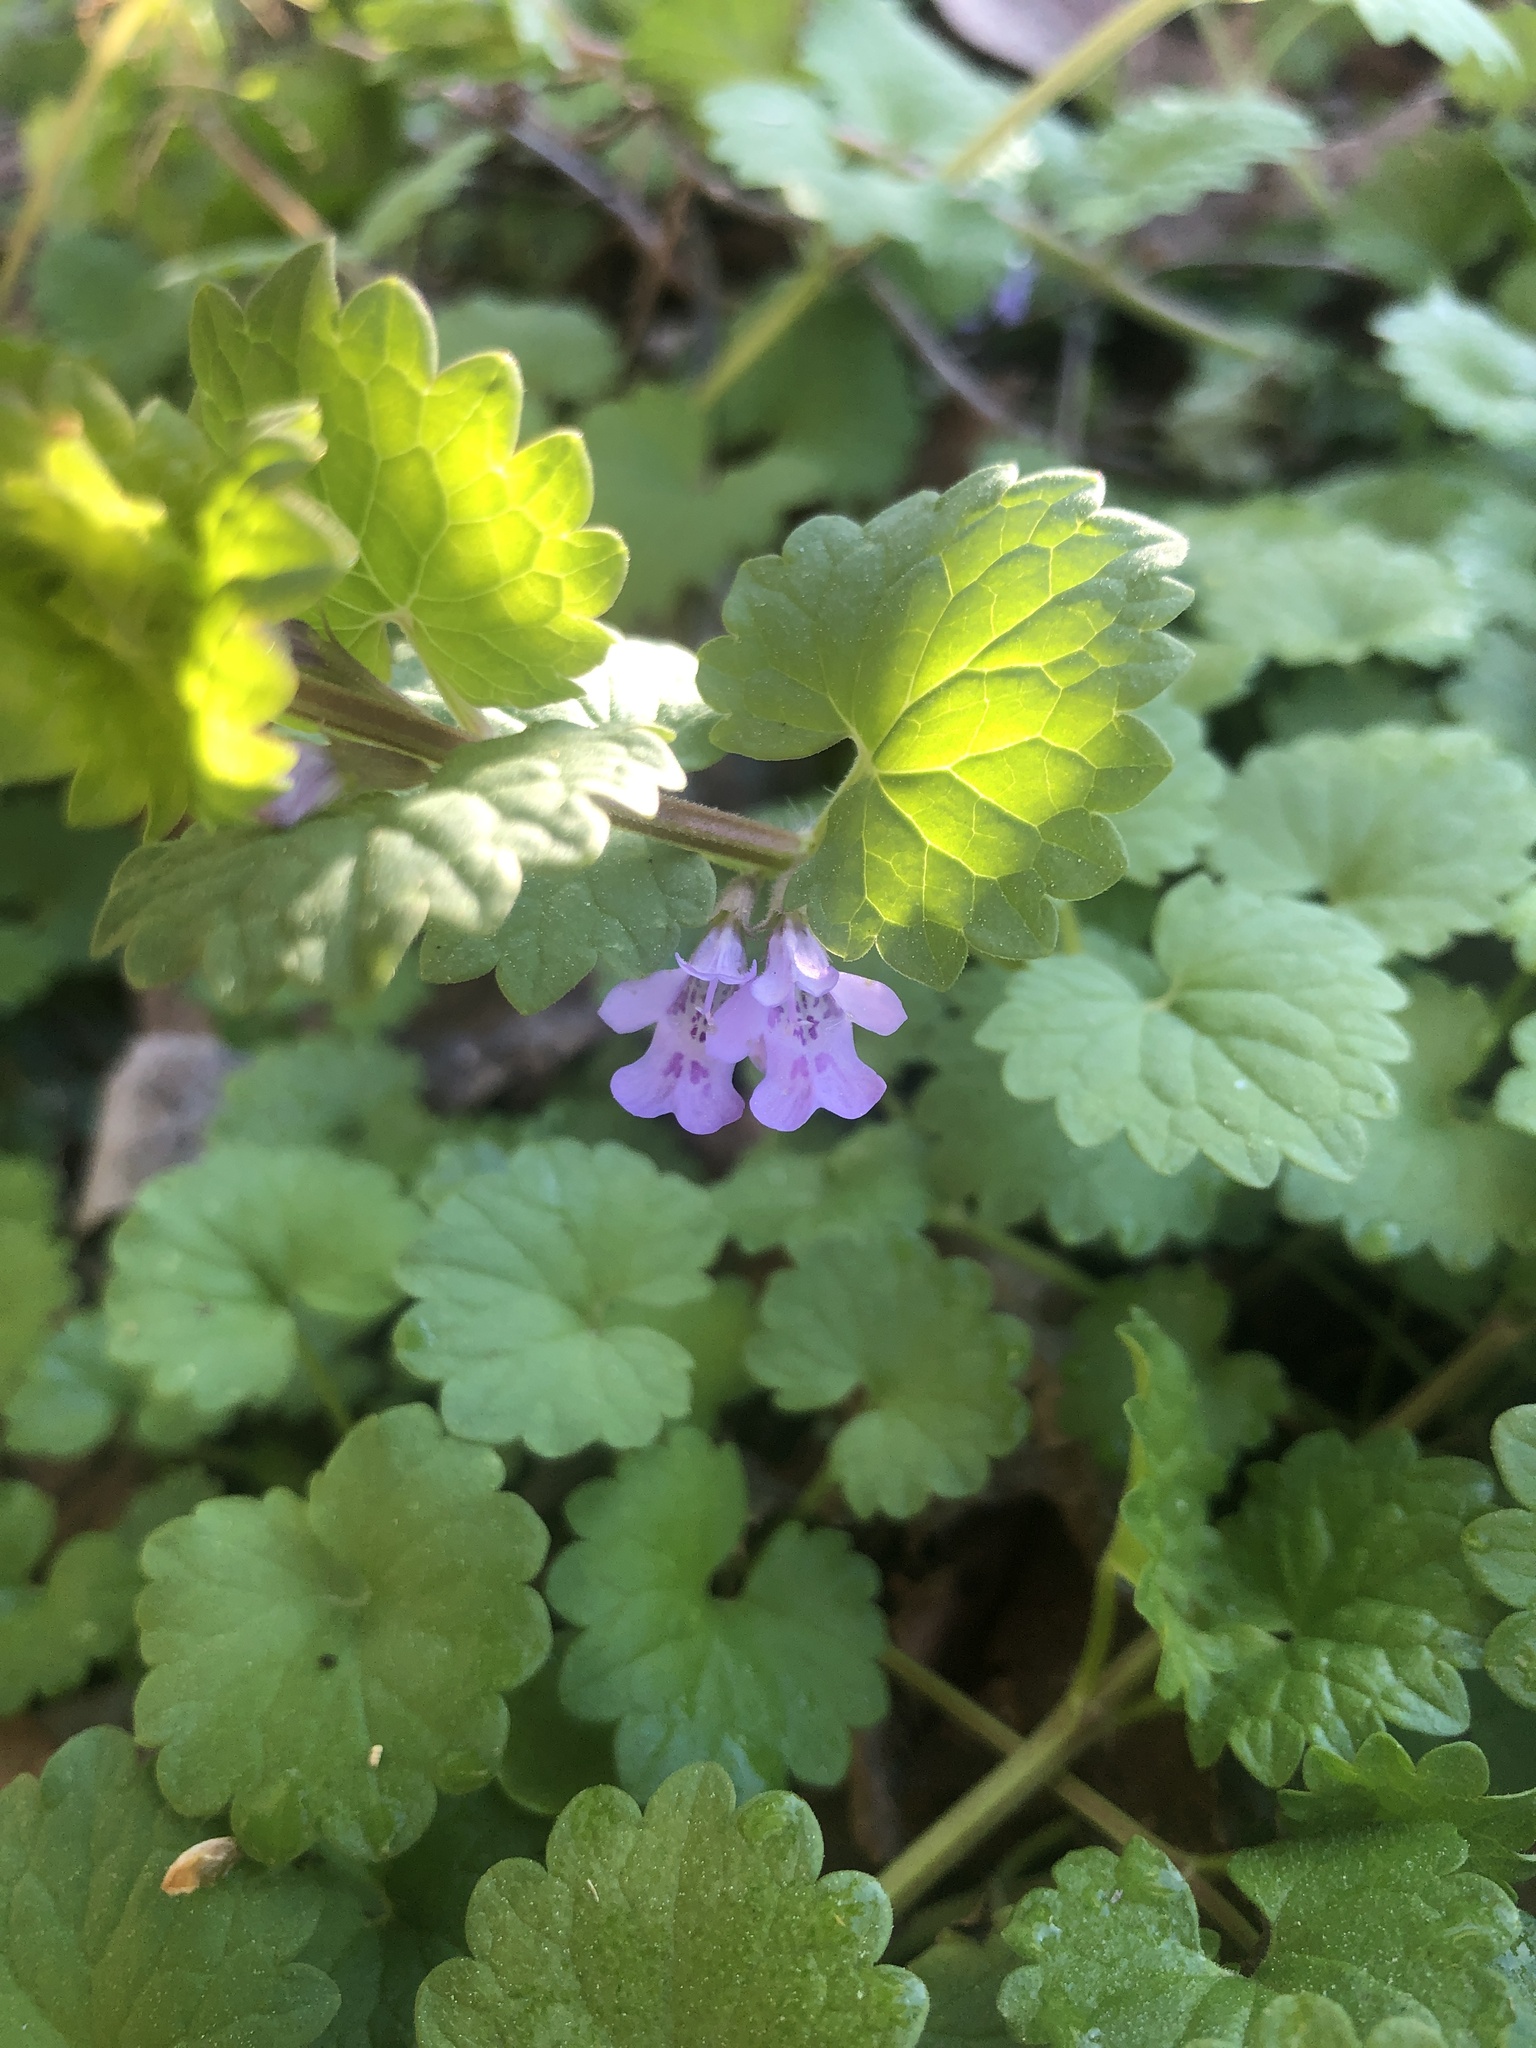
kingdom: Plantae
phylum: Tracheophyta
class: Magnoliopsida
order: Lamiales
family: Lamiaceae
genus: Glechoma
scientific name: Glechoma hederacea
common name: Ground ivy
